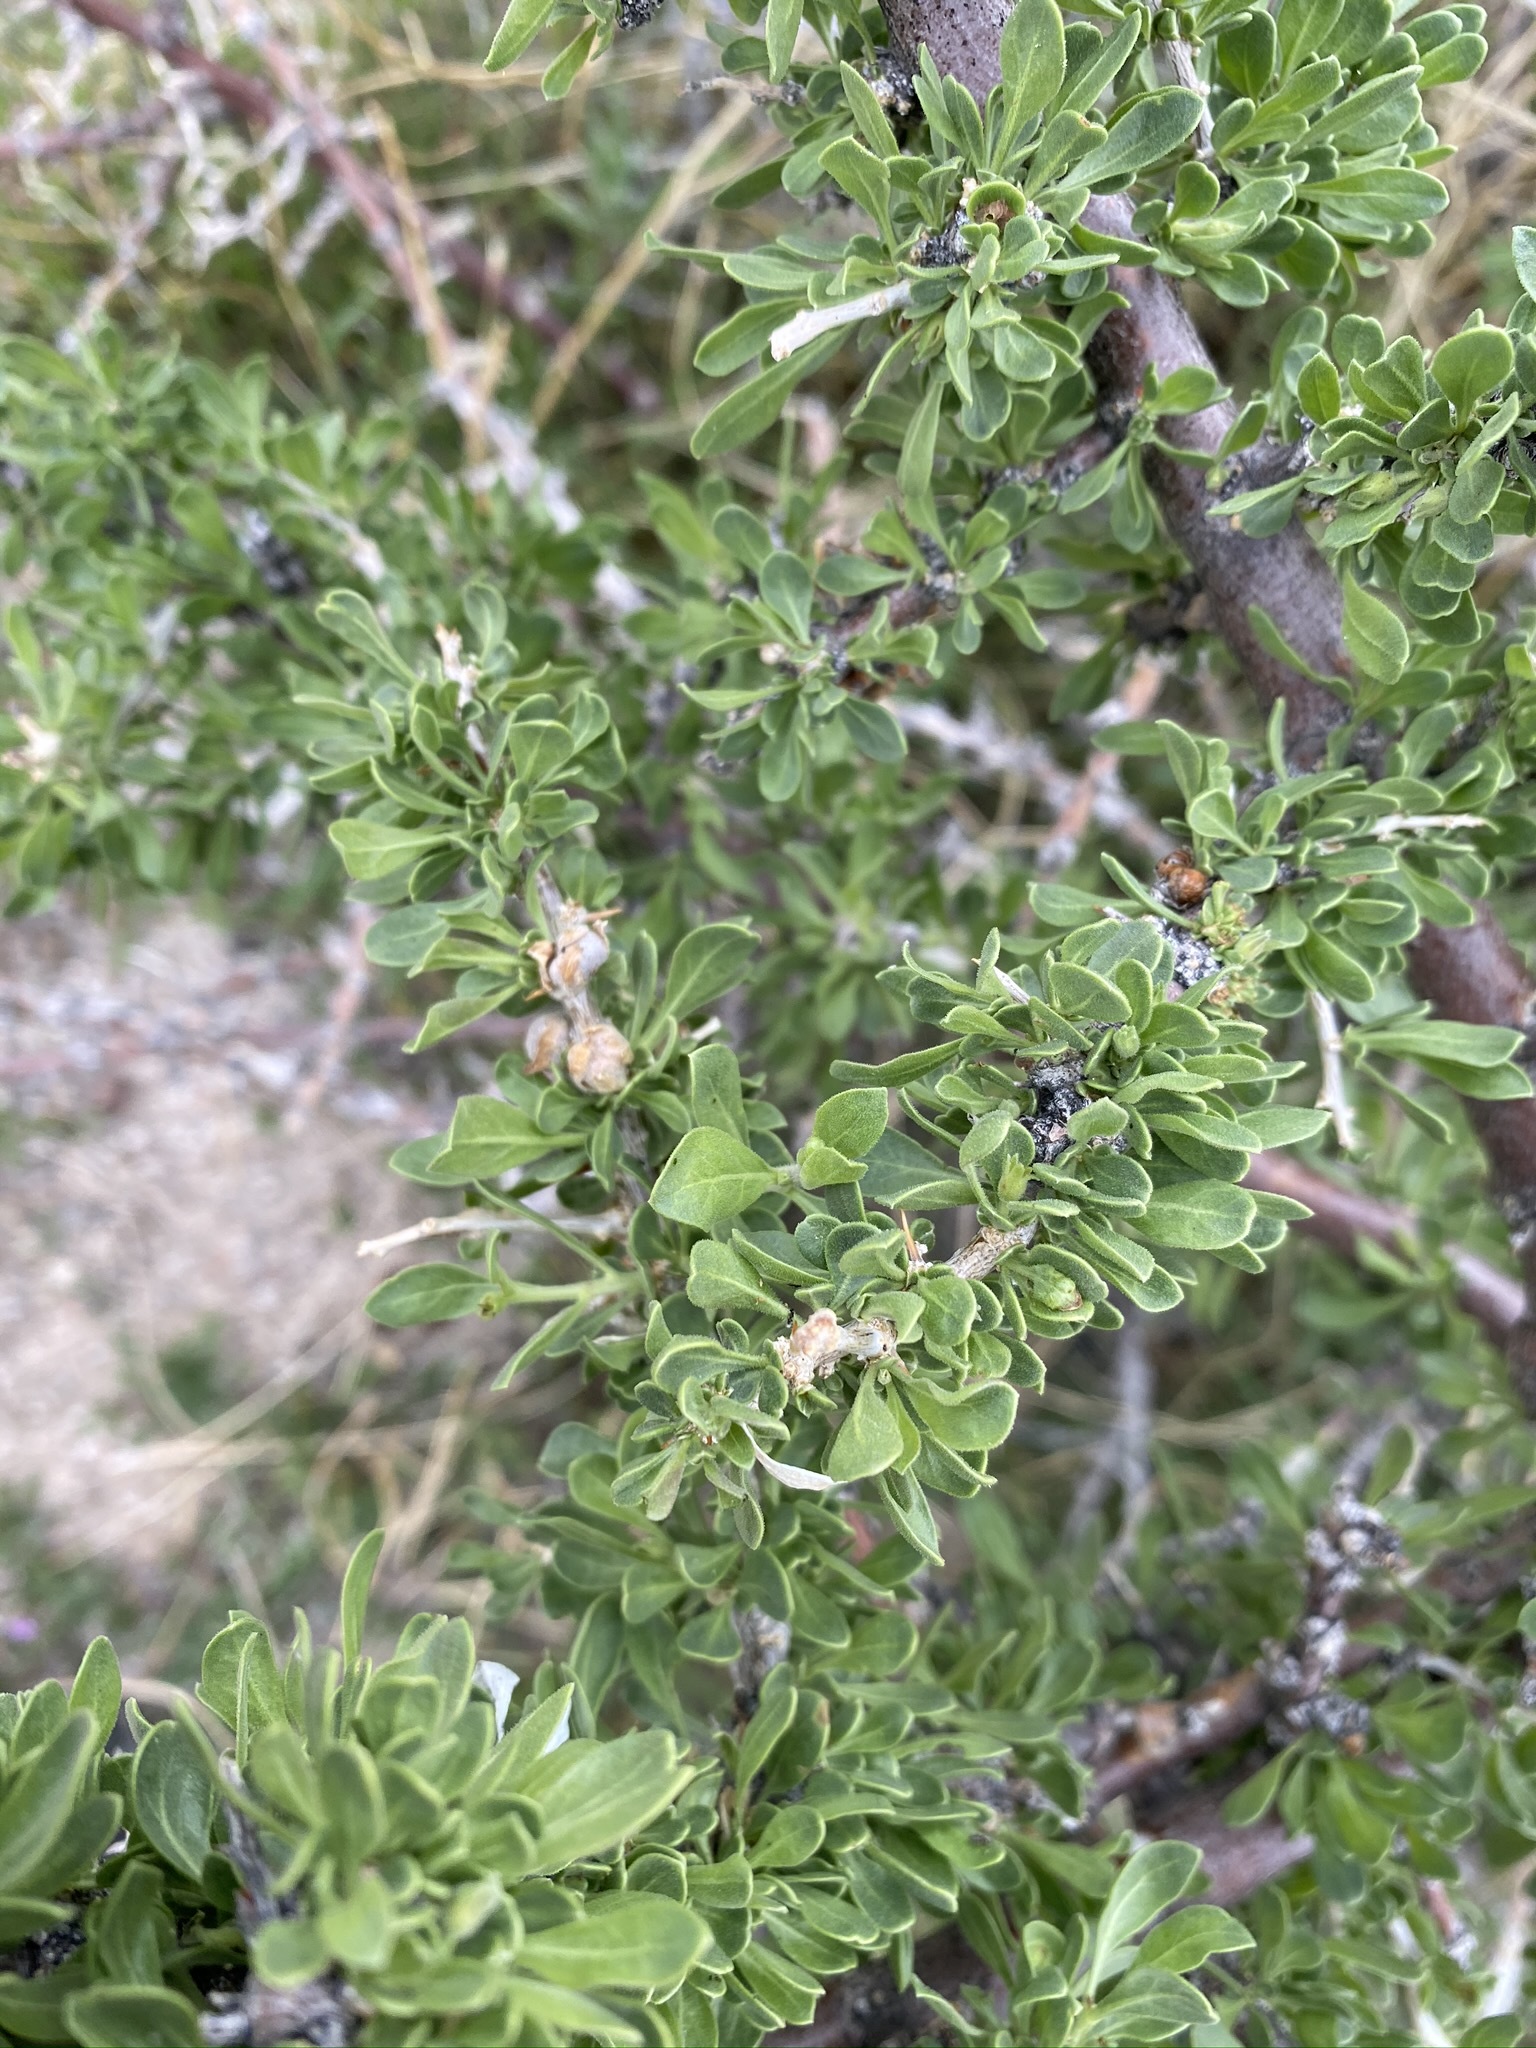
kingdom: Plantae
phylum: Tracheophyta
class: Magnoliopsida
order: Solanales
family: Solanaceae
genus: Lycium
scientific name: Lycium cooperi
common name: Peachthorn
